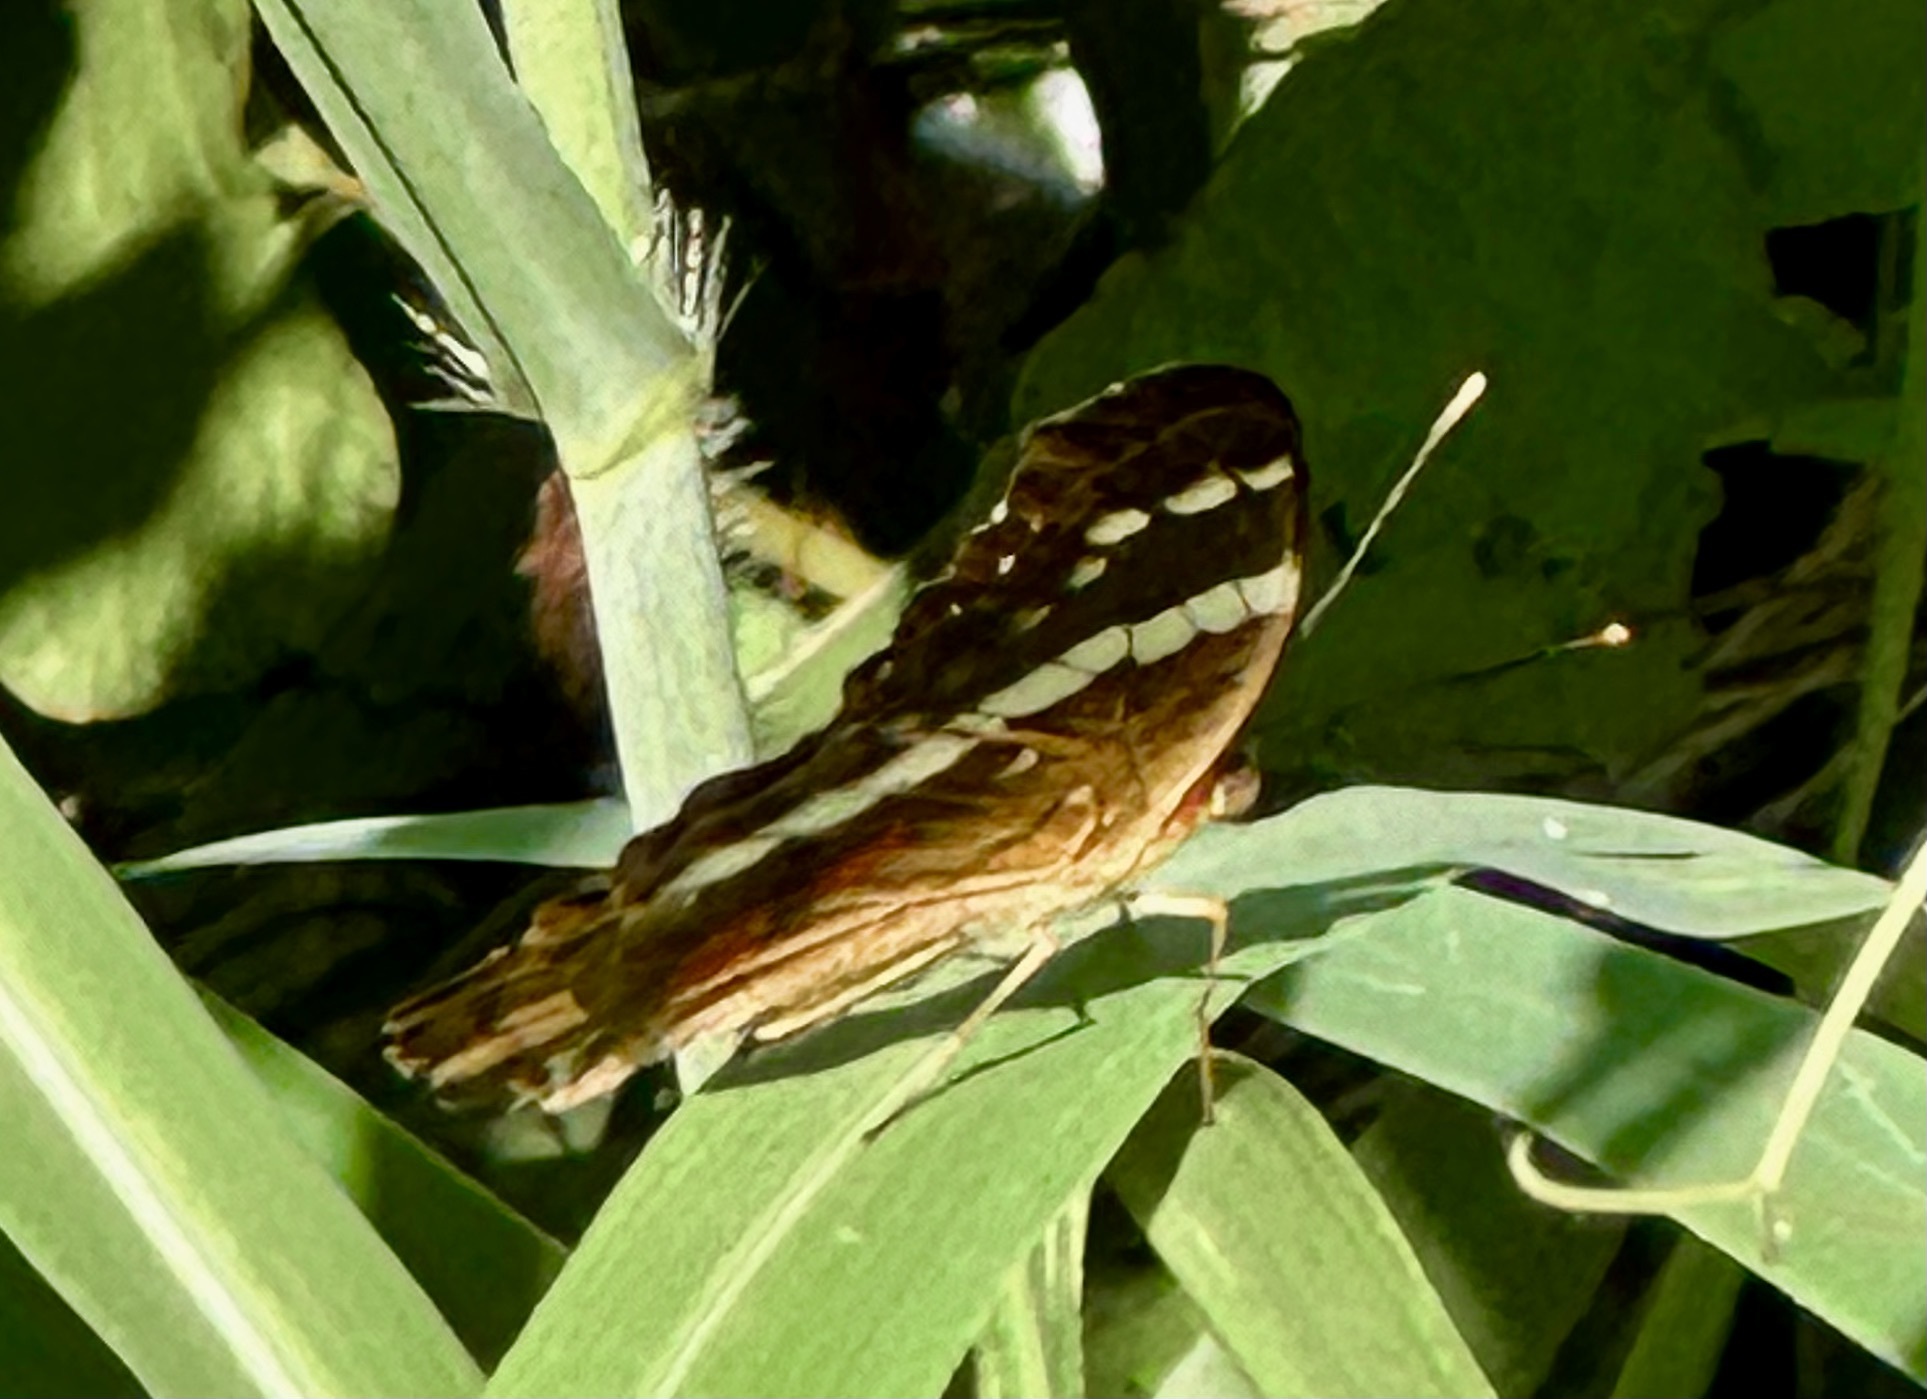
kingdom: Animalia
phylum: Arthropoda
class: Insecta
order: Lepidoptera
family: Nymphalidae
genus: Anartia
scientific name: Anartia fatima
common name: Banded peacock
